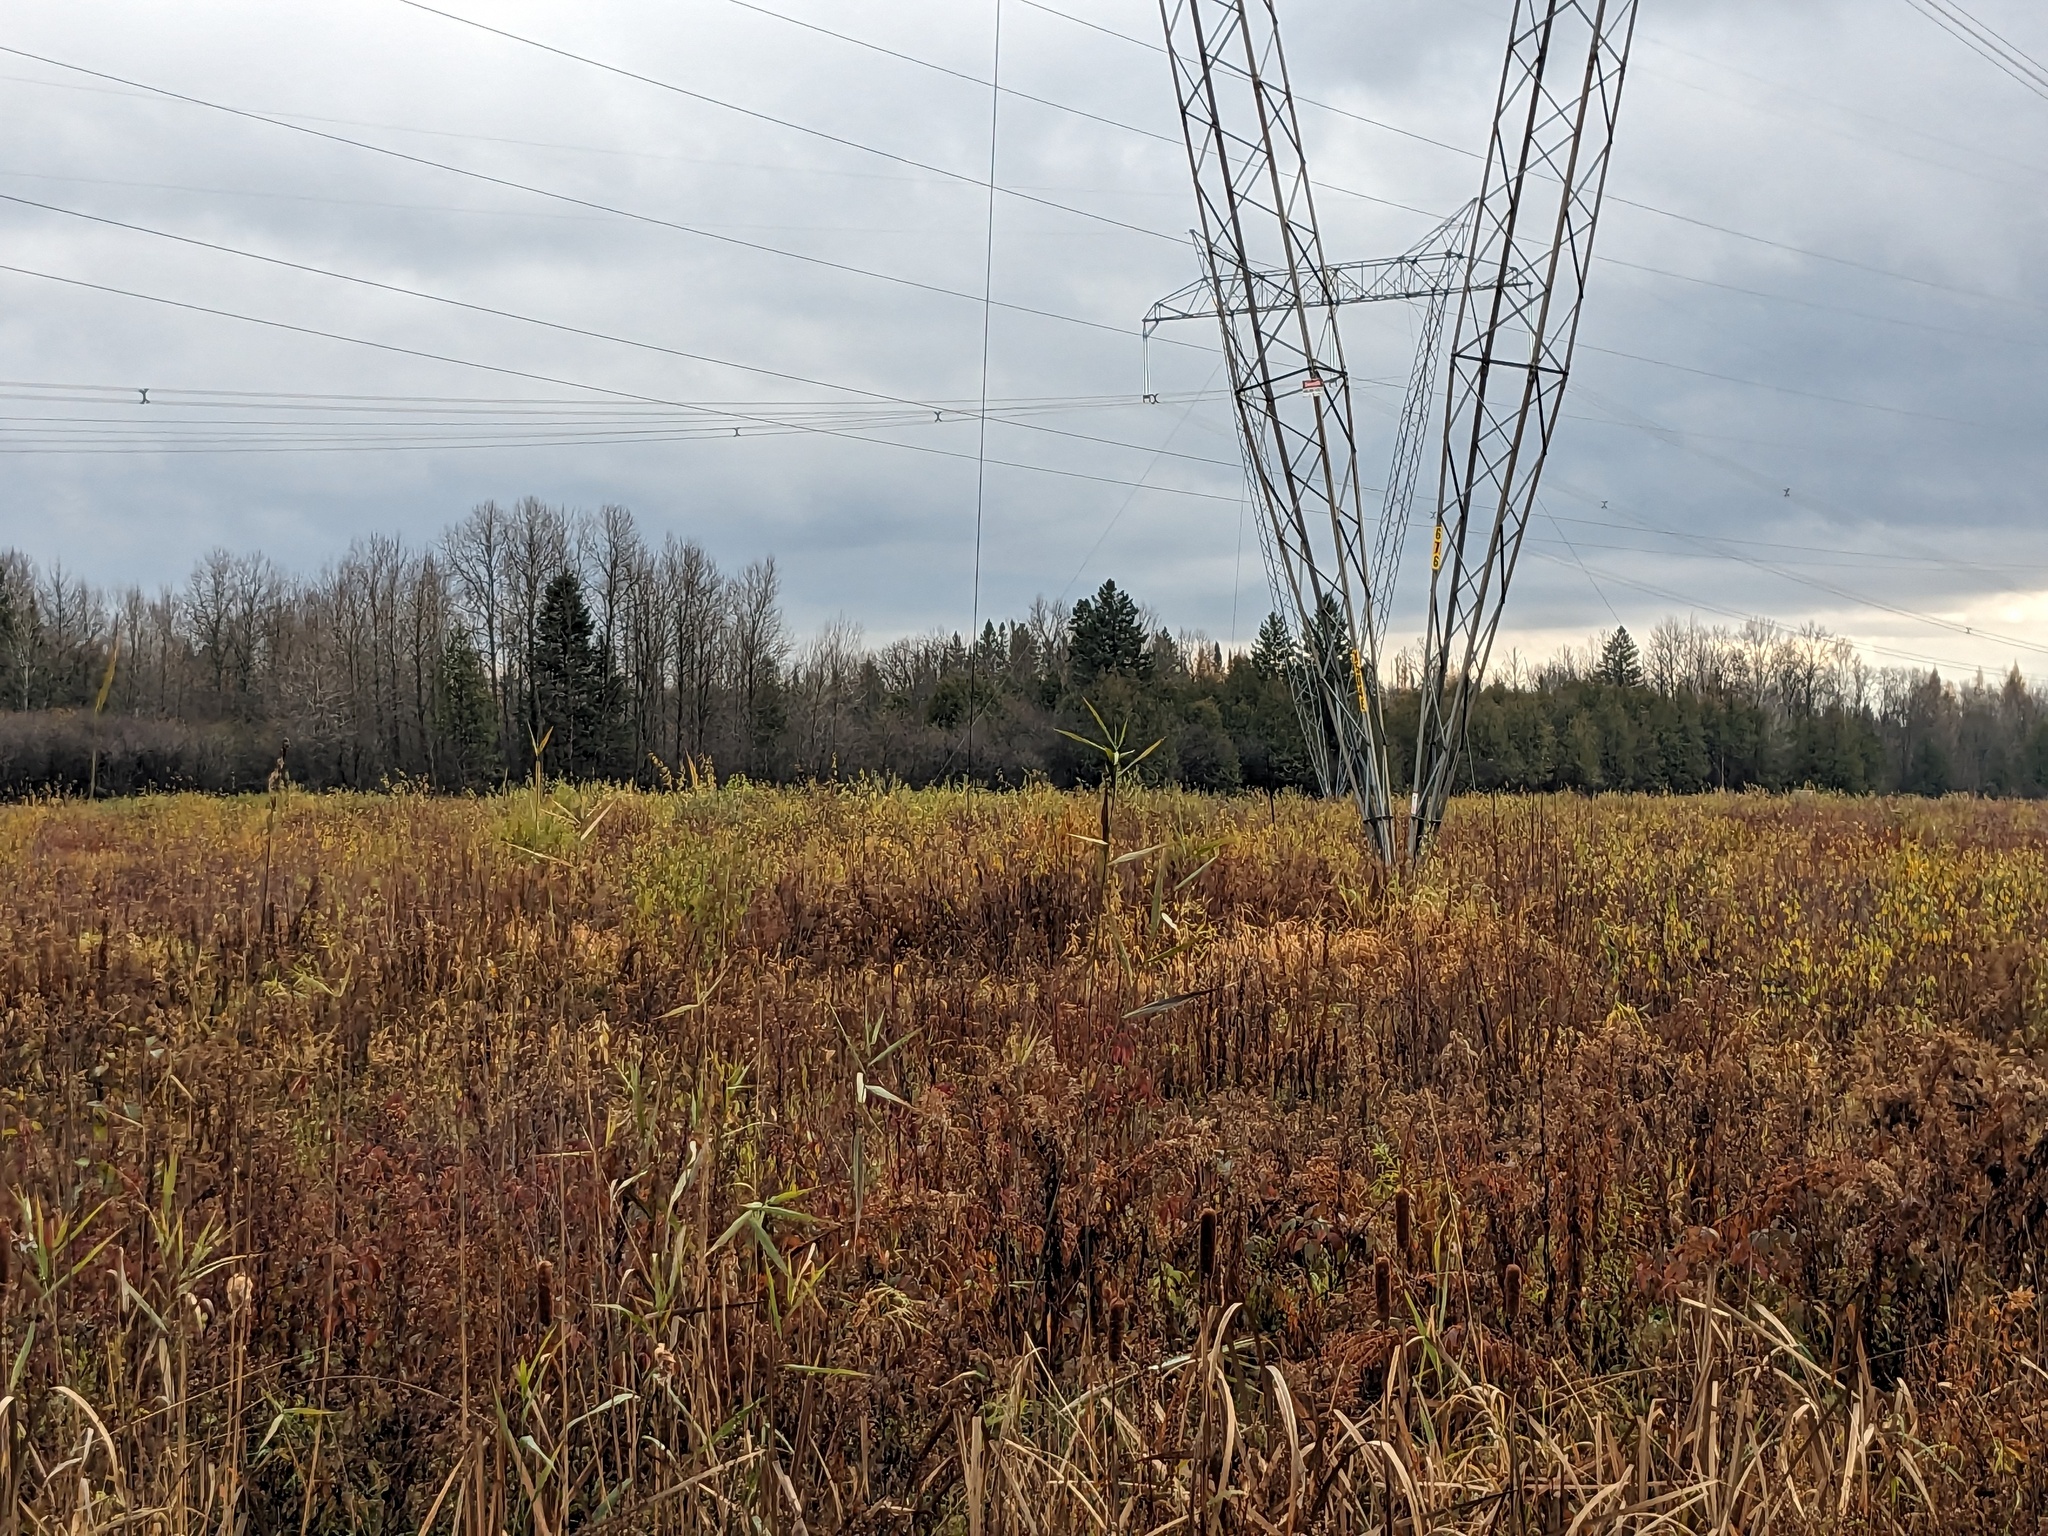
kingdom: Plantae
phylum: Tracheophyta
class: Liliopsida
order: Poales
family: Poaceae
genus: Phragmites
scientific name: Phragmites australis
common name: Common reed
